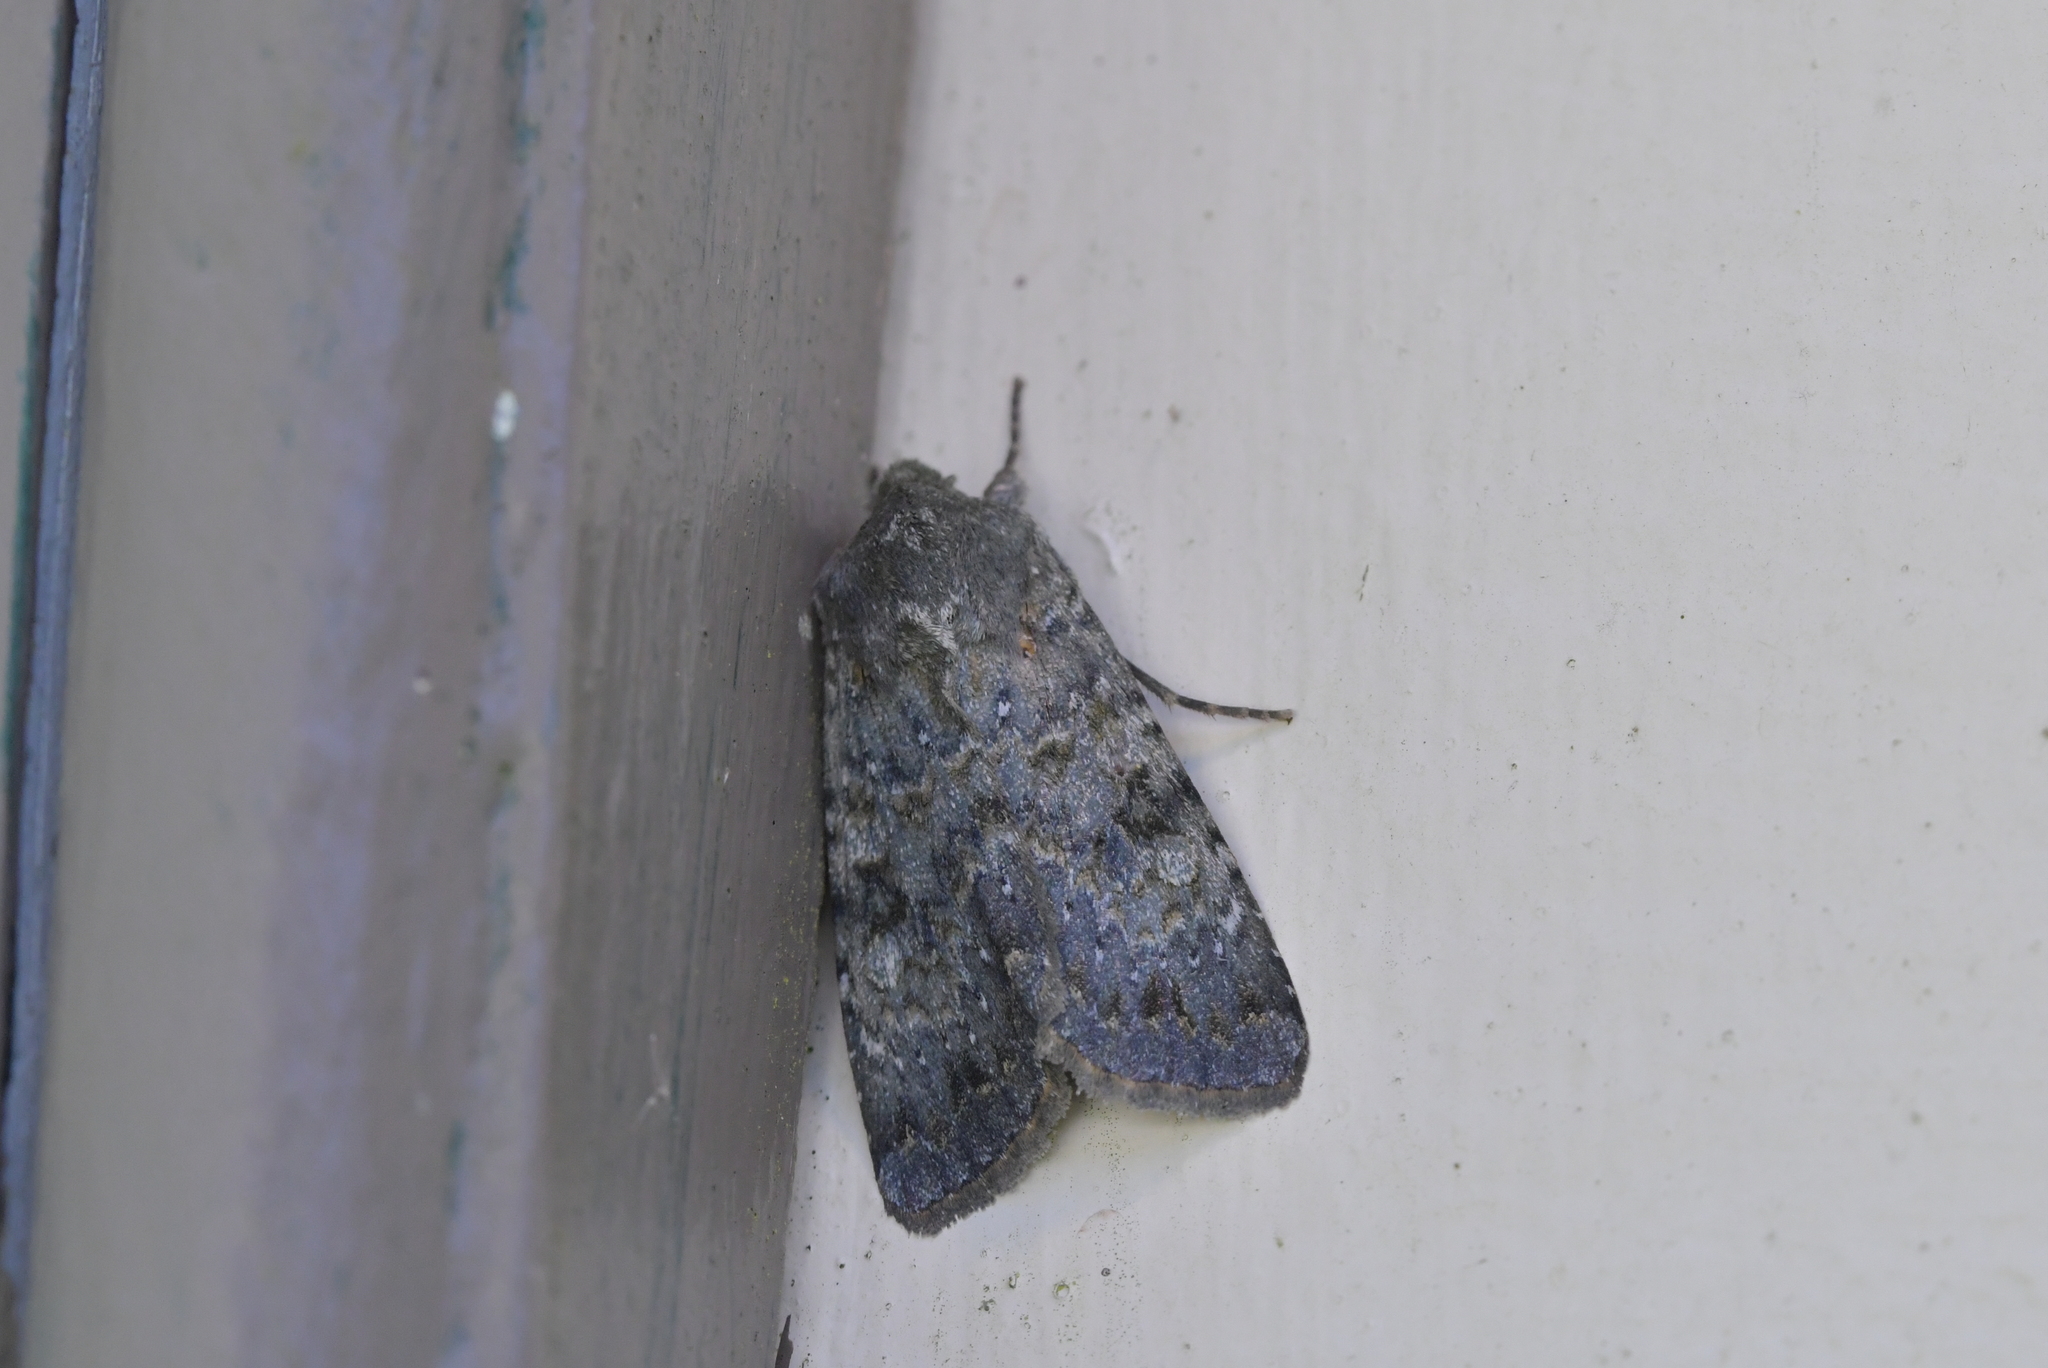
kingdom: Animalia
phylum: Arthropoda
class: Insecta
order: Lepidoptera
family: Noctuidae
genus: Ichneutica
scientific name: Ichneutica
